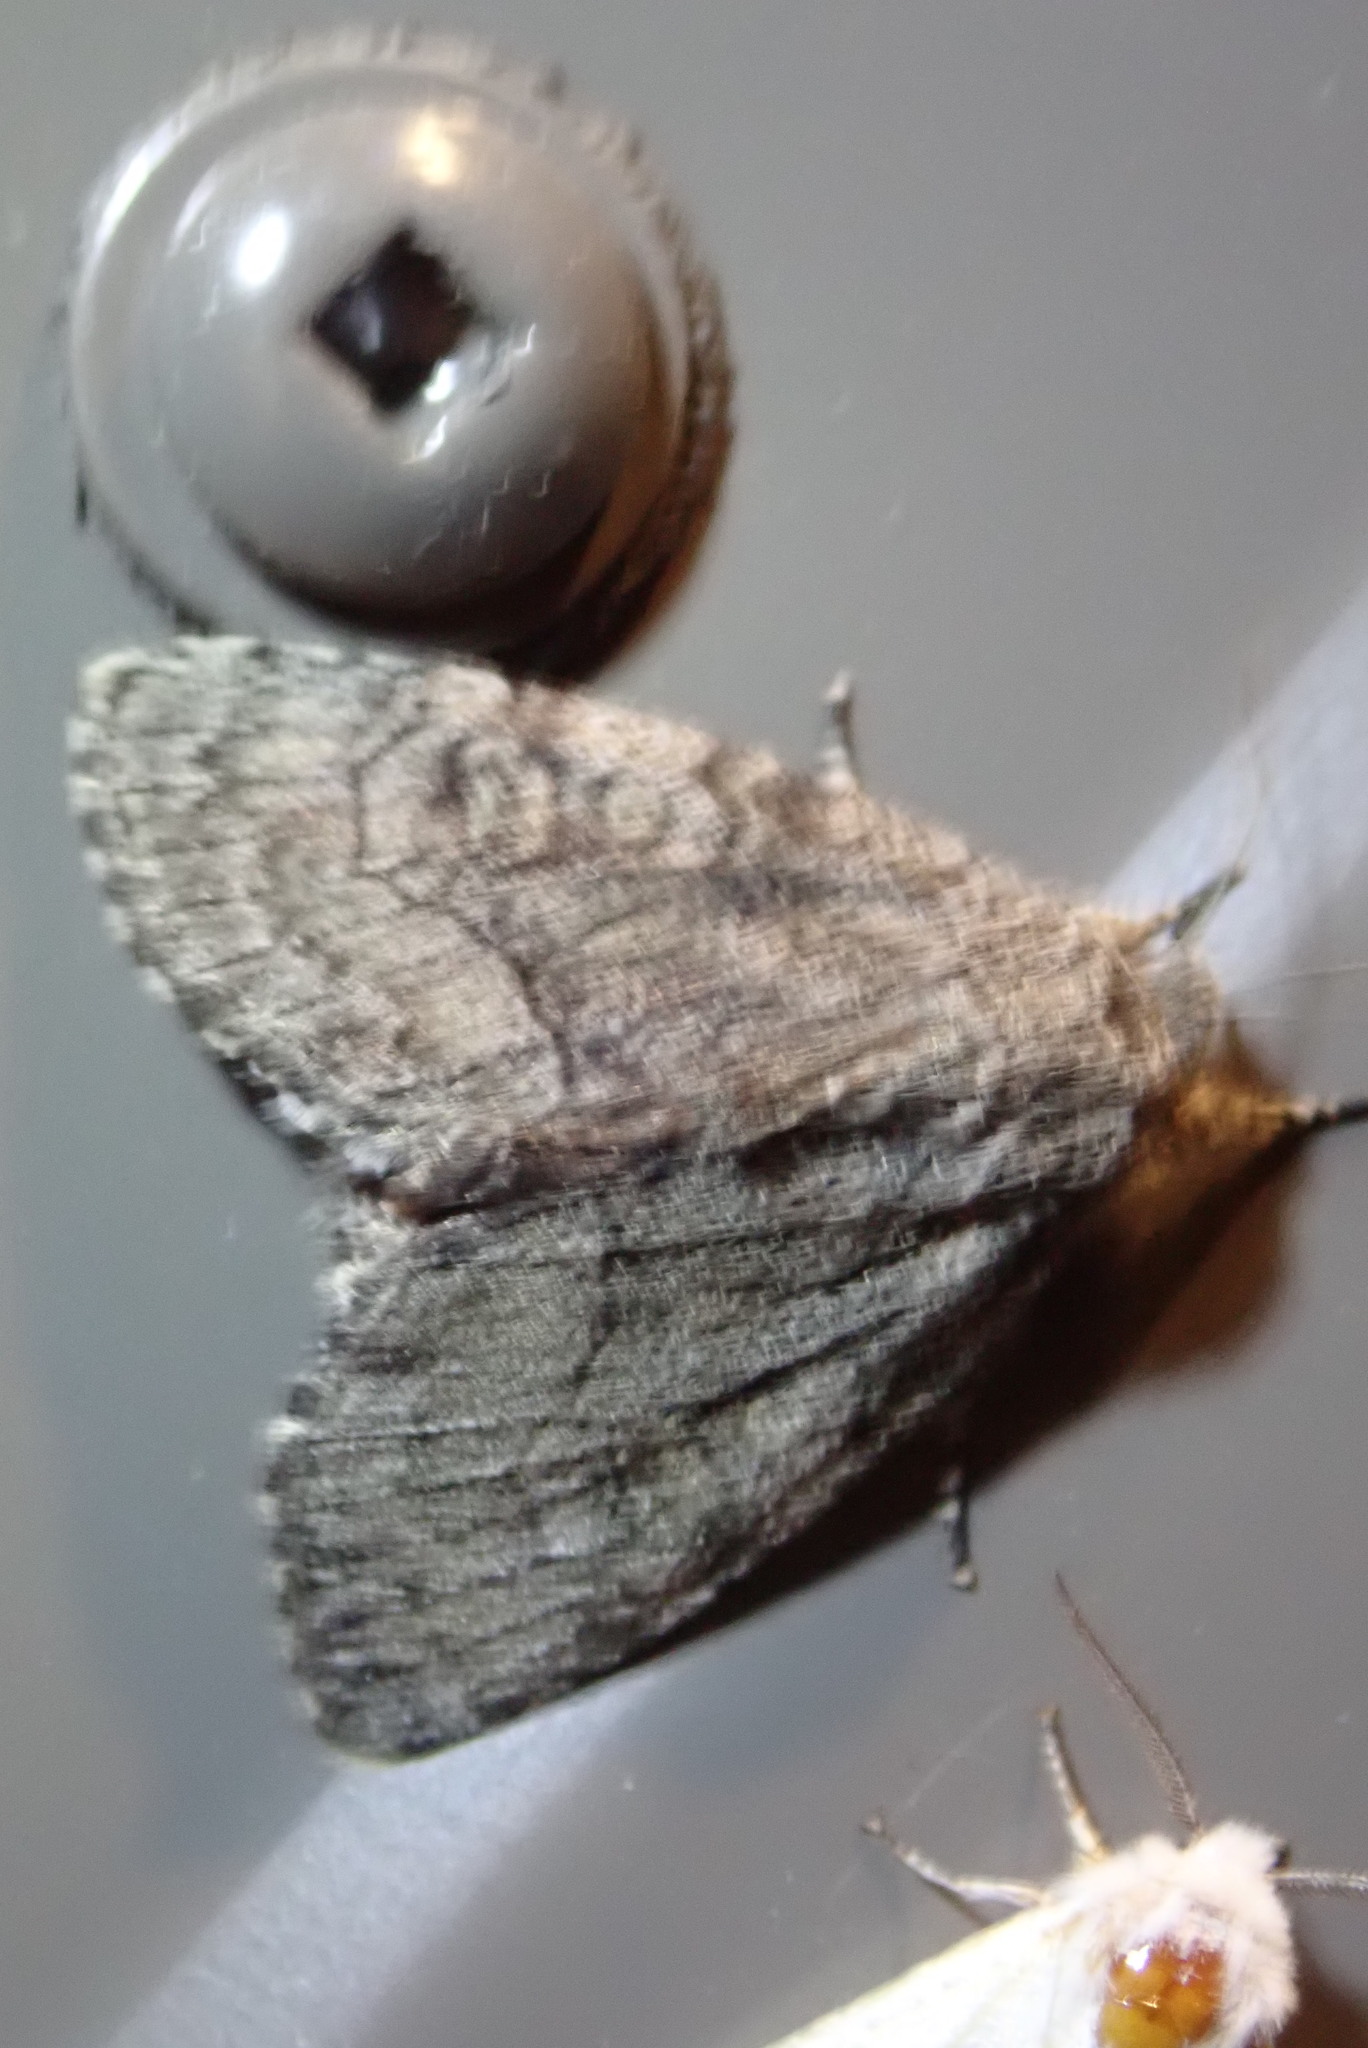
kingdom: Animalia
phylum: Arthropoda
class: Insecta
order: Lepidoptera
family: Noctuidae
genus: Raphia
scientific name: Raphia frater
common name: Brother
